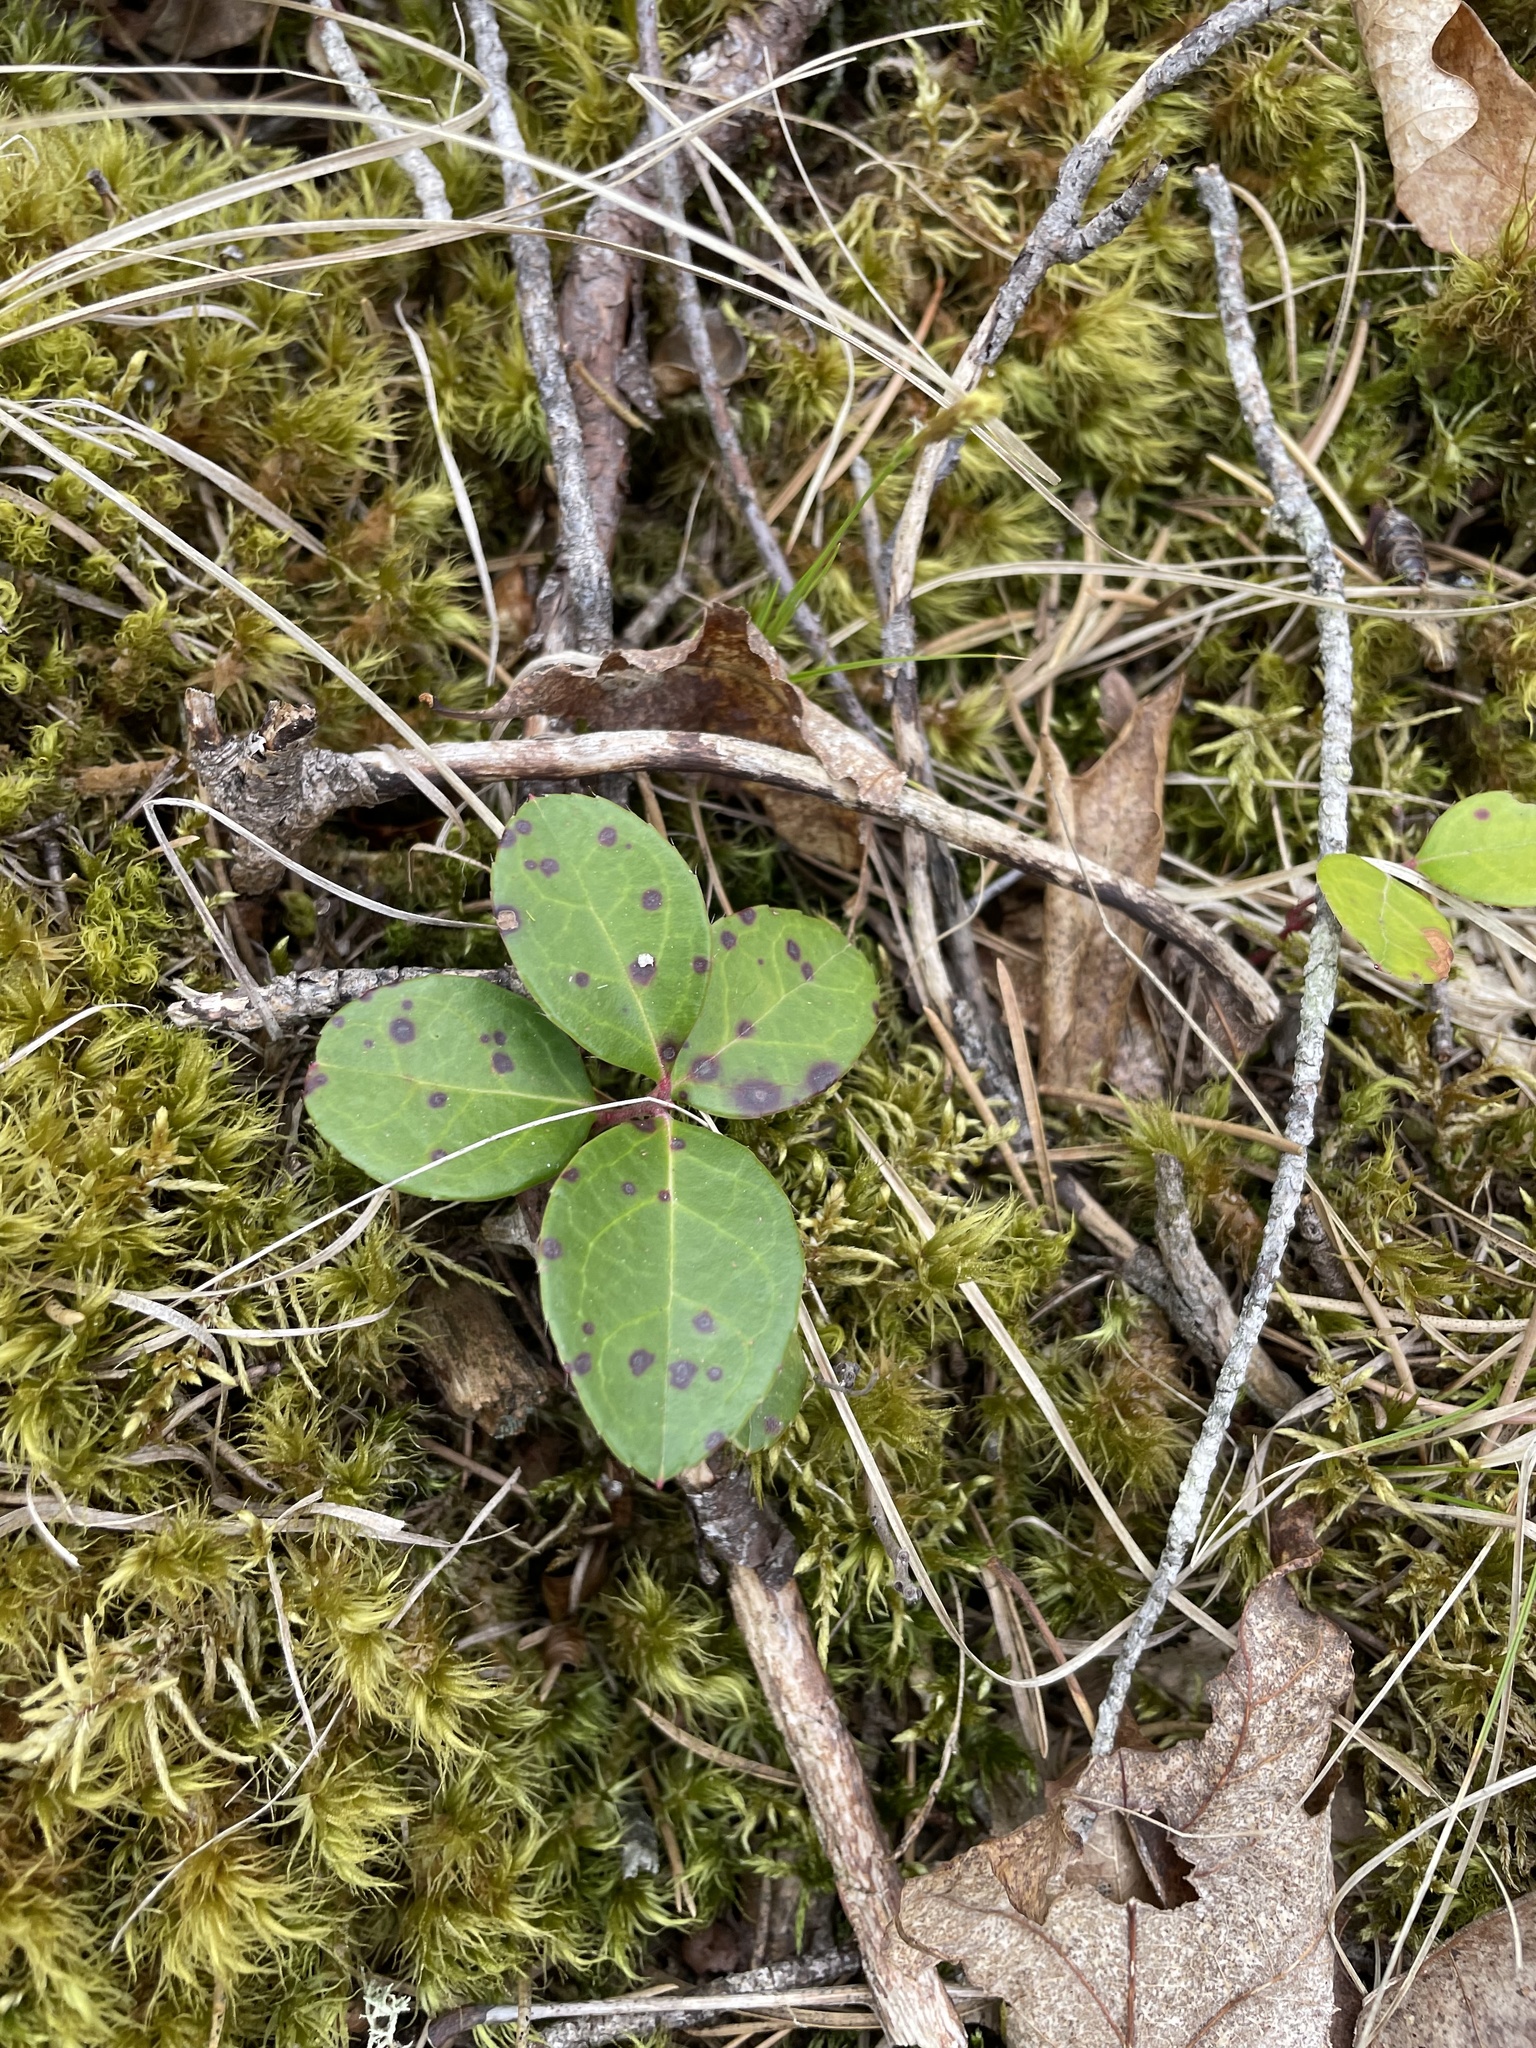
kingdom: Plantae
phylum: Tracheophyta
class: Magnoliopsida
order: Ericales
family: Ericaceae
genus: Gaultheria
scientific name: Gaultheria procumbens
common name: Checkerberry
